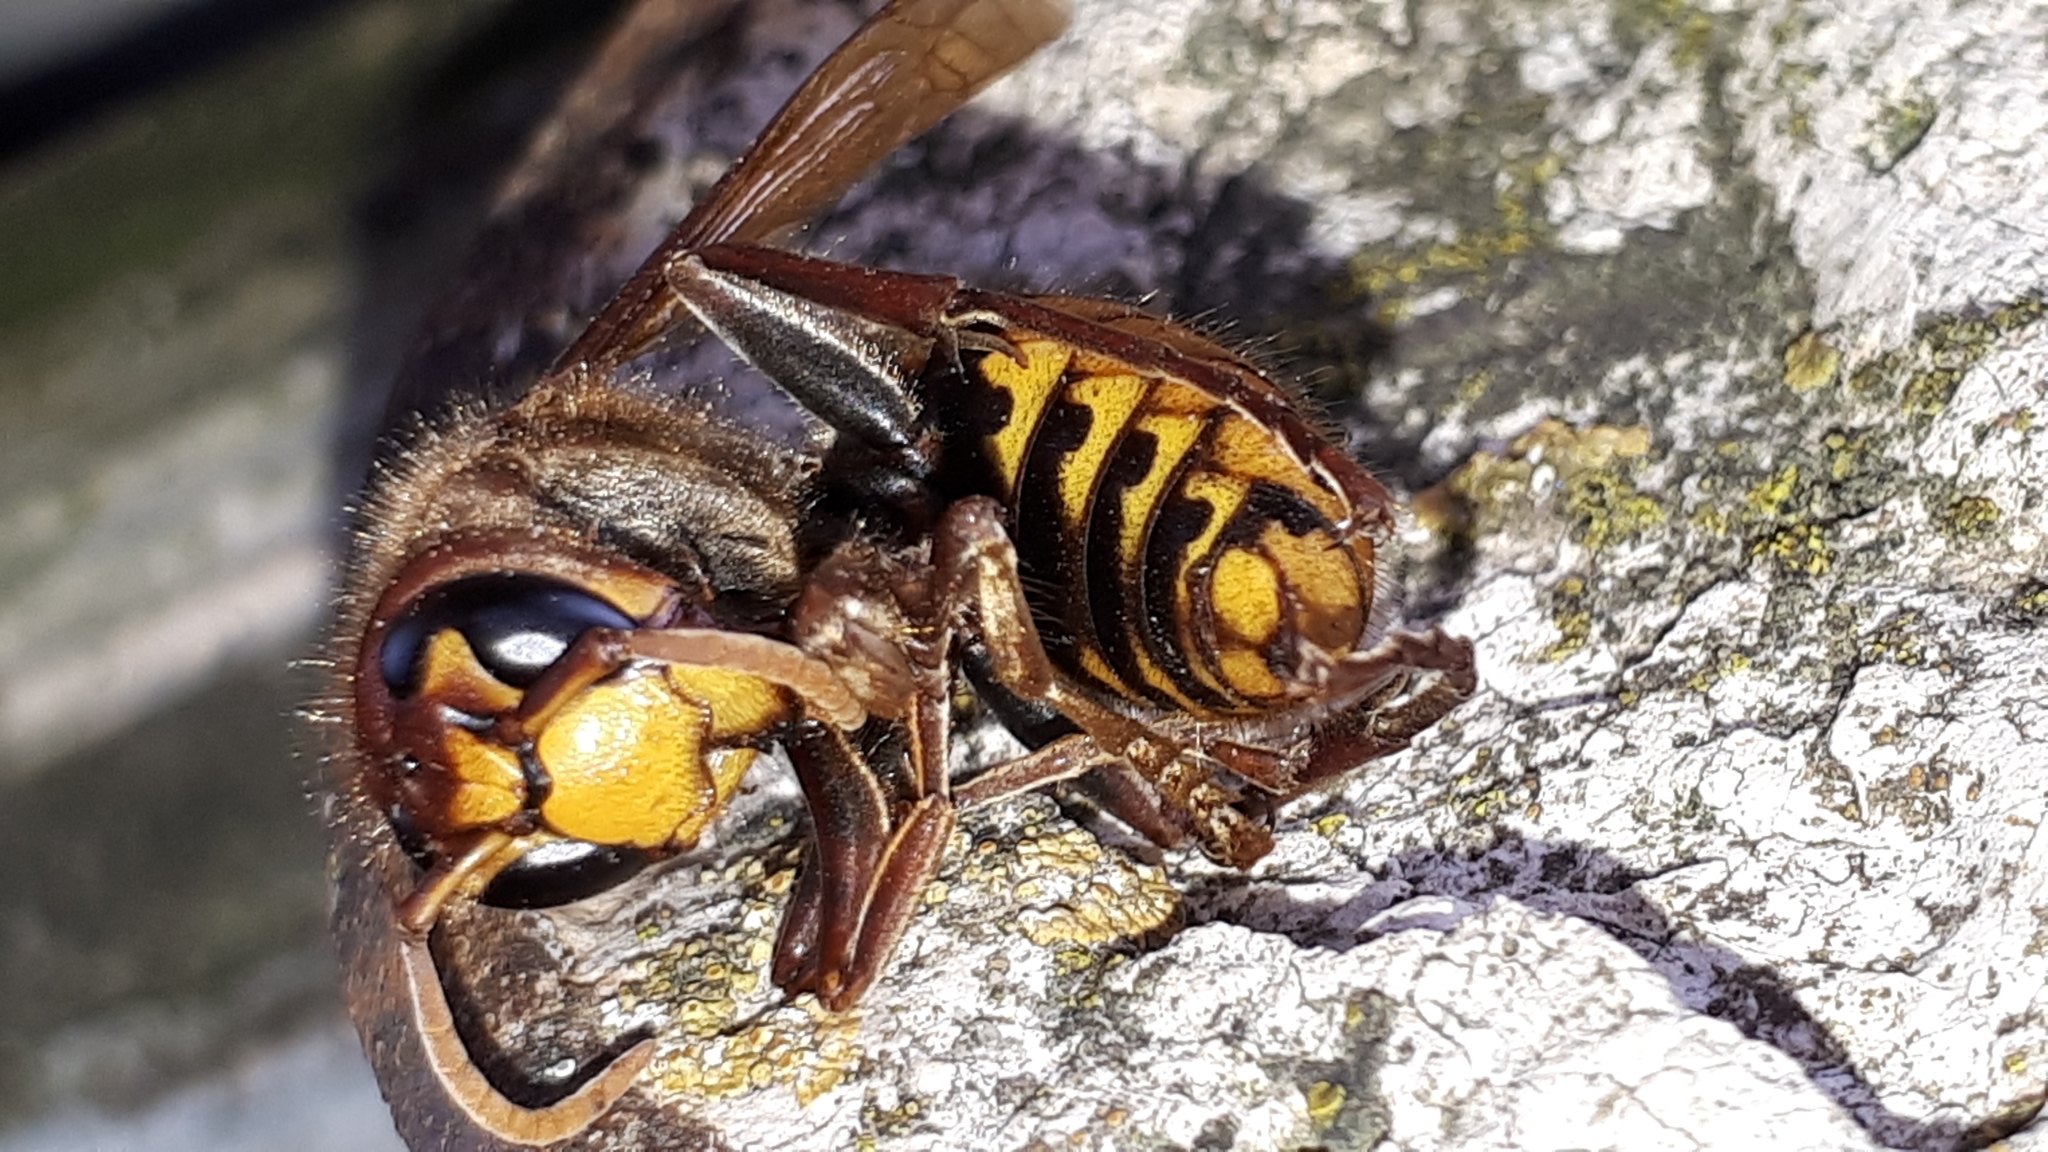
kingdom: Animalia
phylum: Arthropoda
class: Insecta
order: Hymenoptera
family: Vespidae
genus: Vespa
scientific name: Vespa crabro
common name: Hornet
